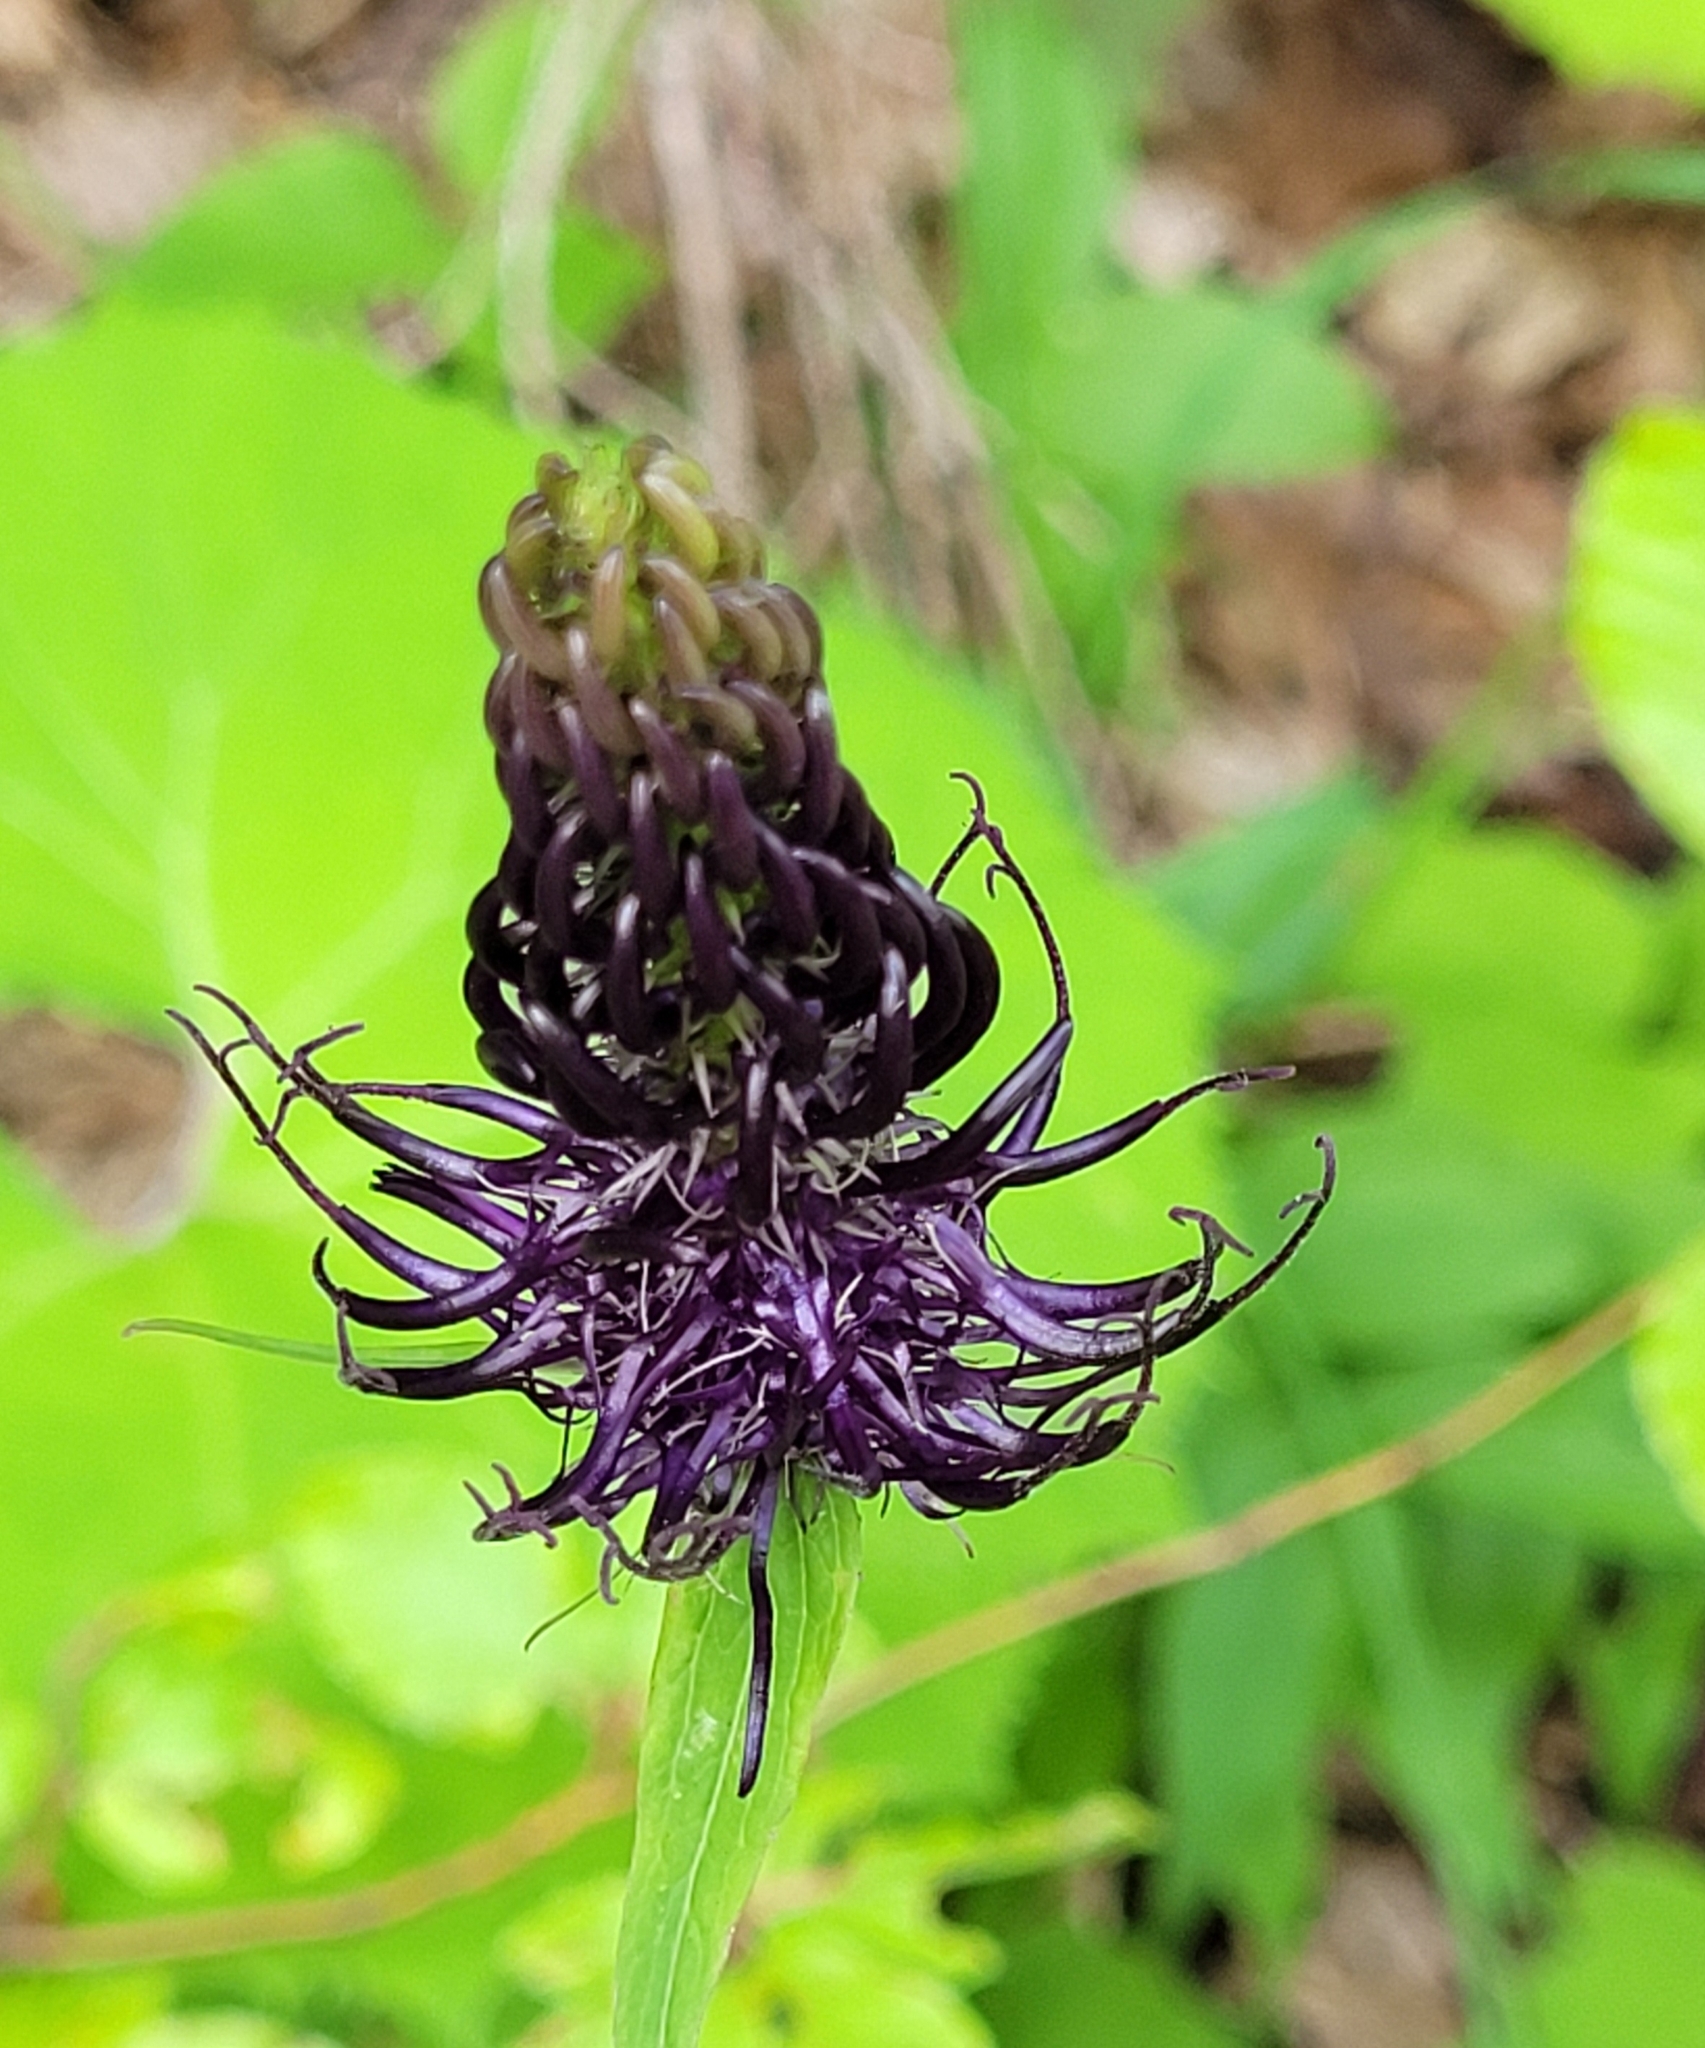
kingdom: Plantae
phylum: Tracheophyta
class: Magnoliopsida
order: Asterales
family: Campanulaceae
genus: Phyteuma
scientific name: Phyteuma ovatum
